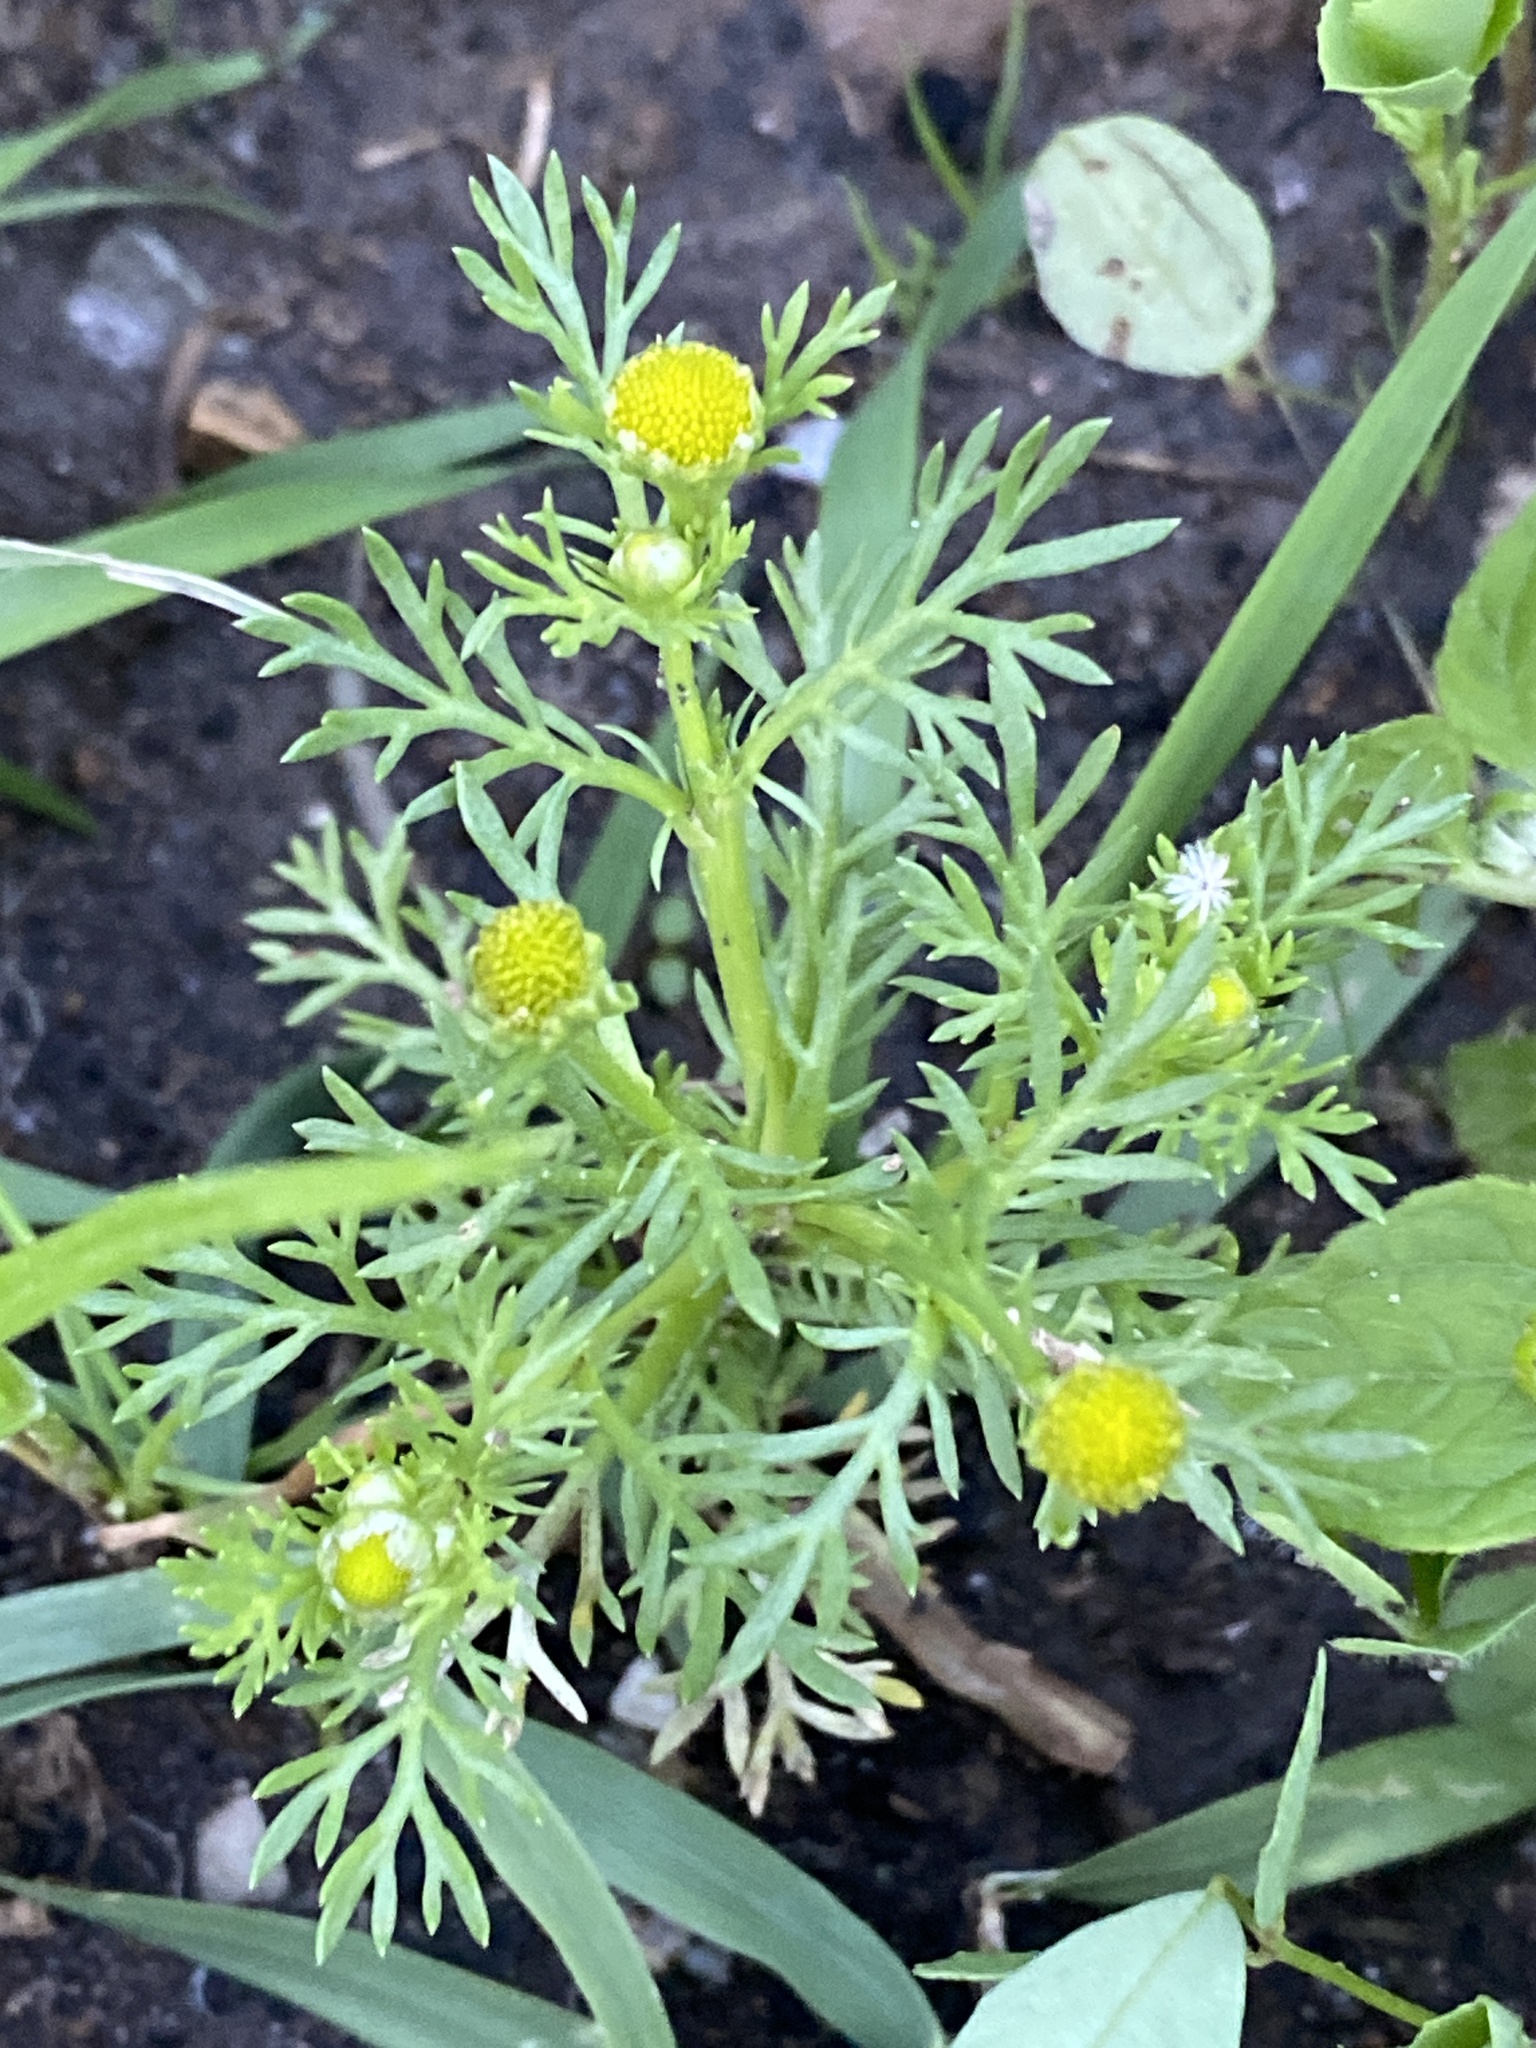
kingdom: Plantae
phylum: Tracheophyta
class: Magnoliopsida
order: Asterales
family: Asteraceae
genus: Matricaria
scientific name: Matricaria discoidea
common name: Disc mayweed
